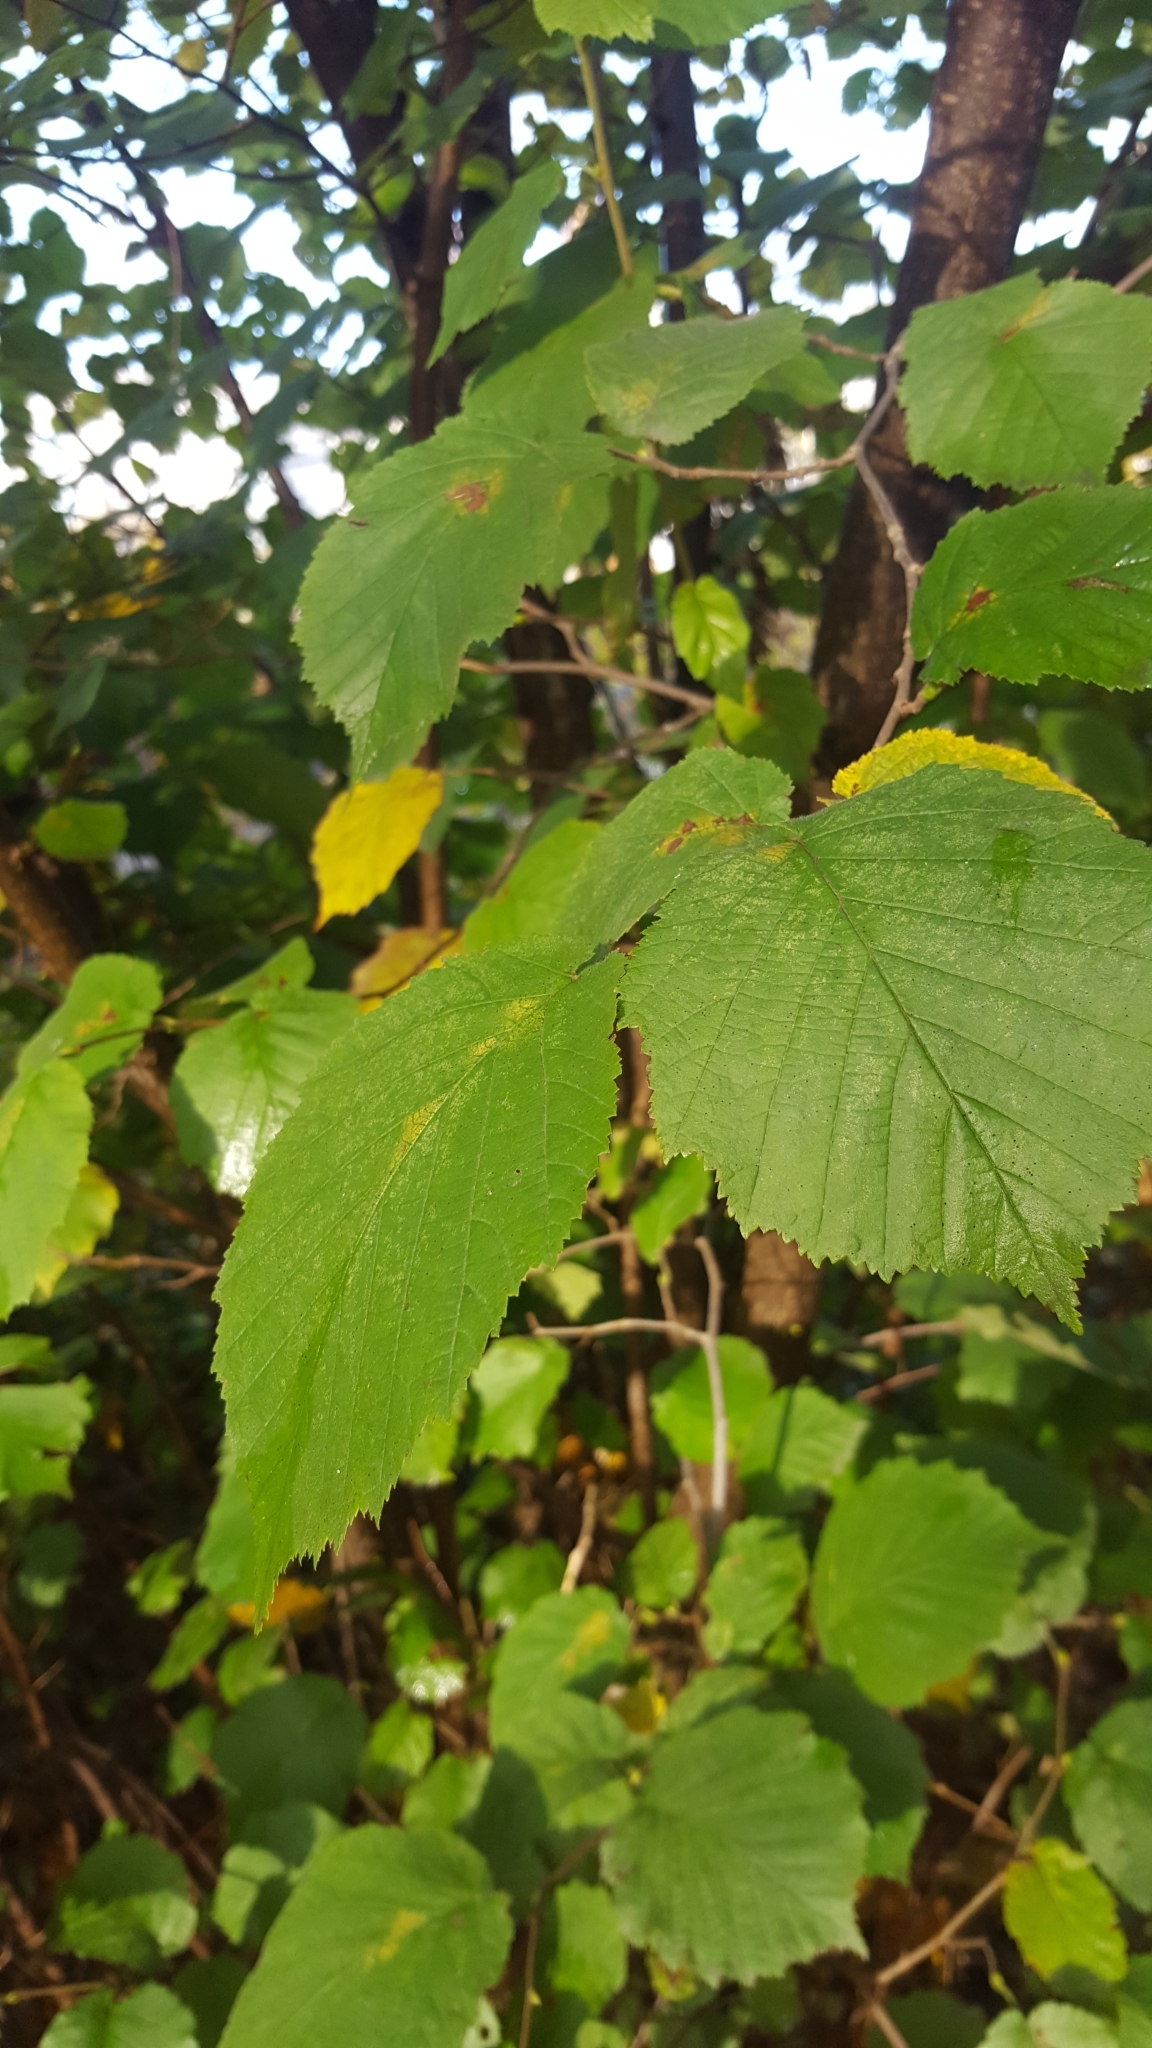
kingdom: Plantae
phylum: Tracheophyta
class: Magnoliopsida
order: Fagales
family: Betulaceae
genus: Corylus
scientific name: Corylus avellana
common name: European hazel
